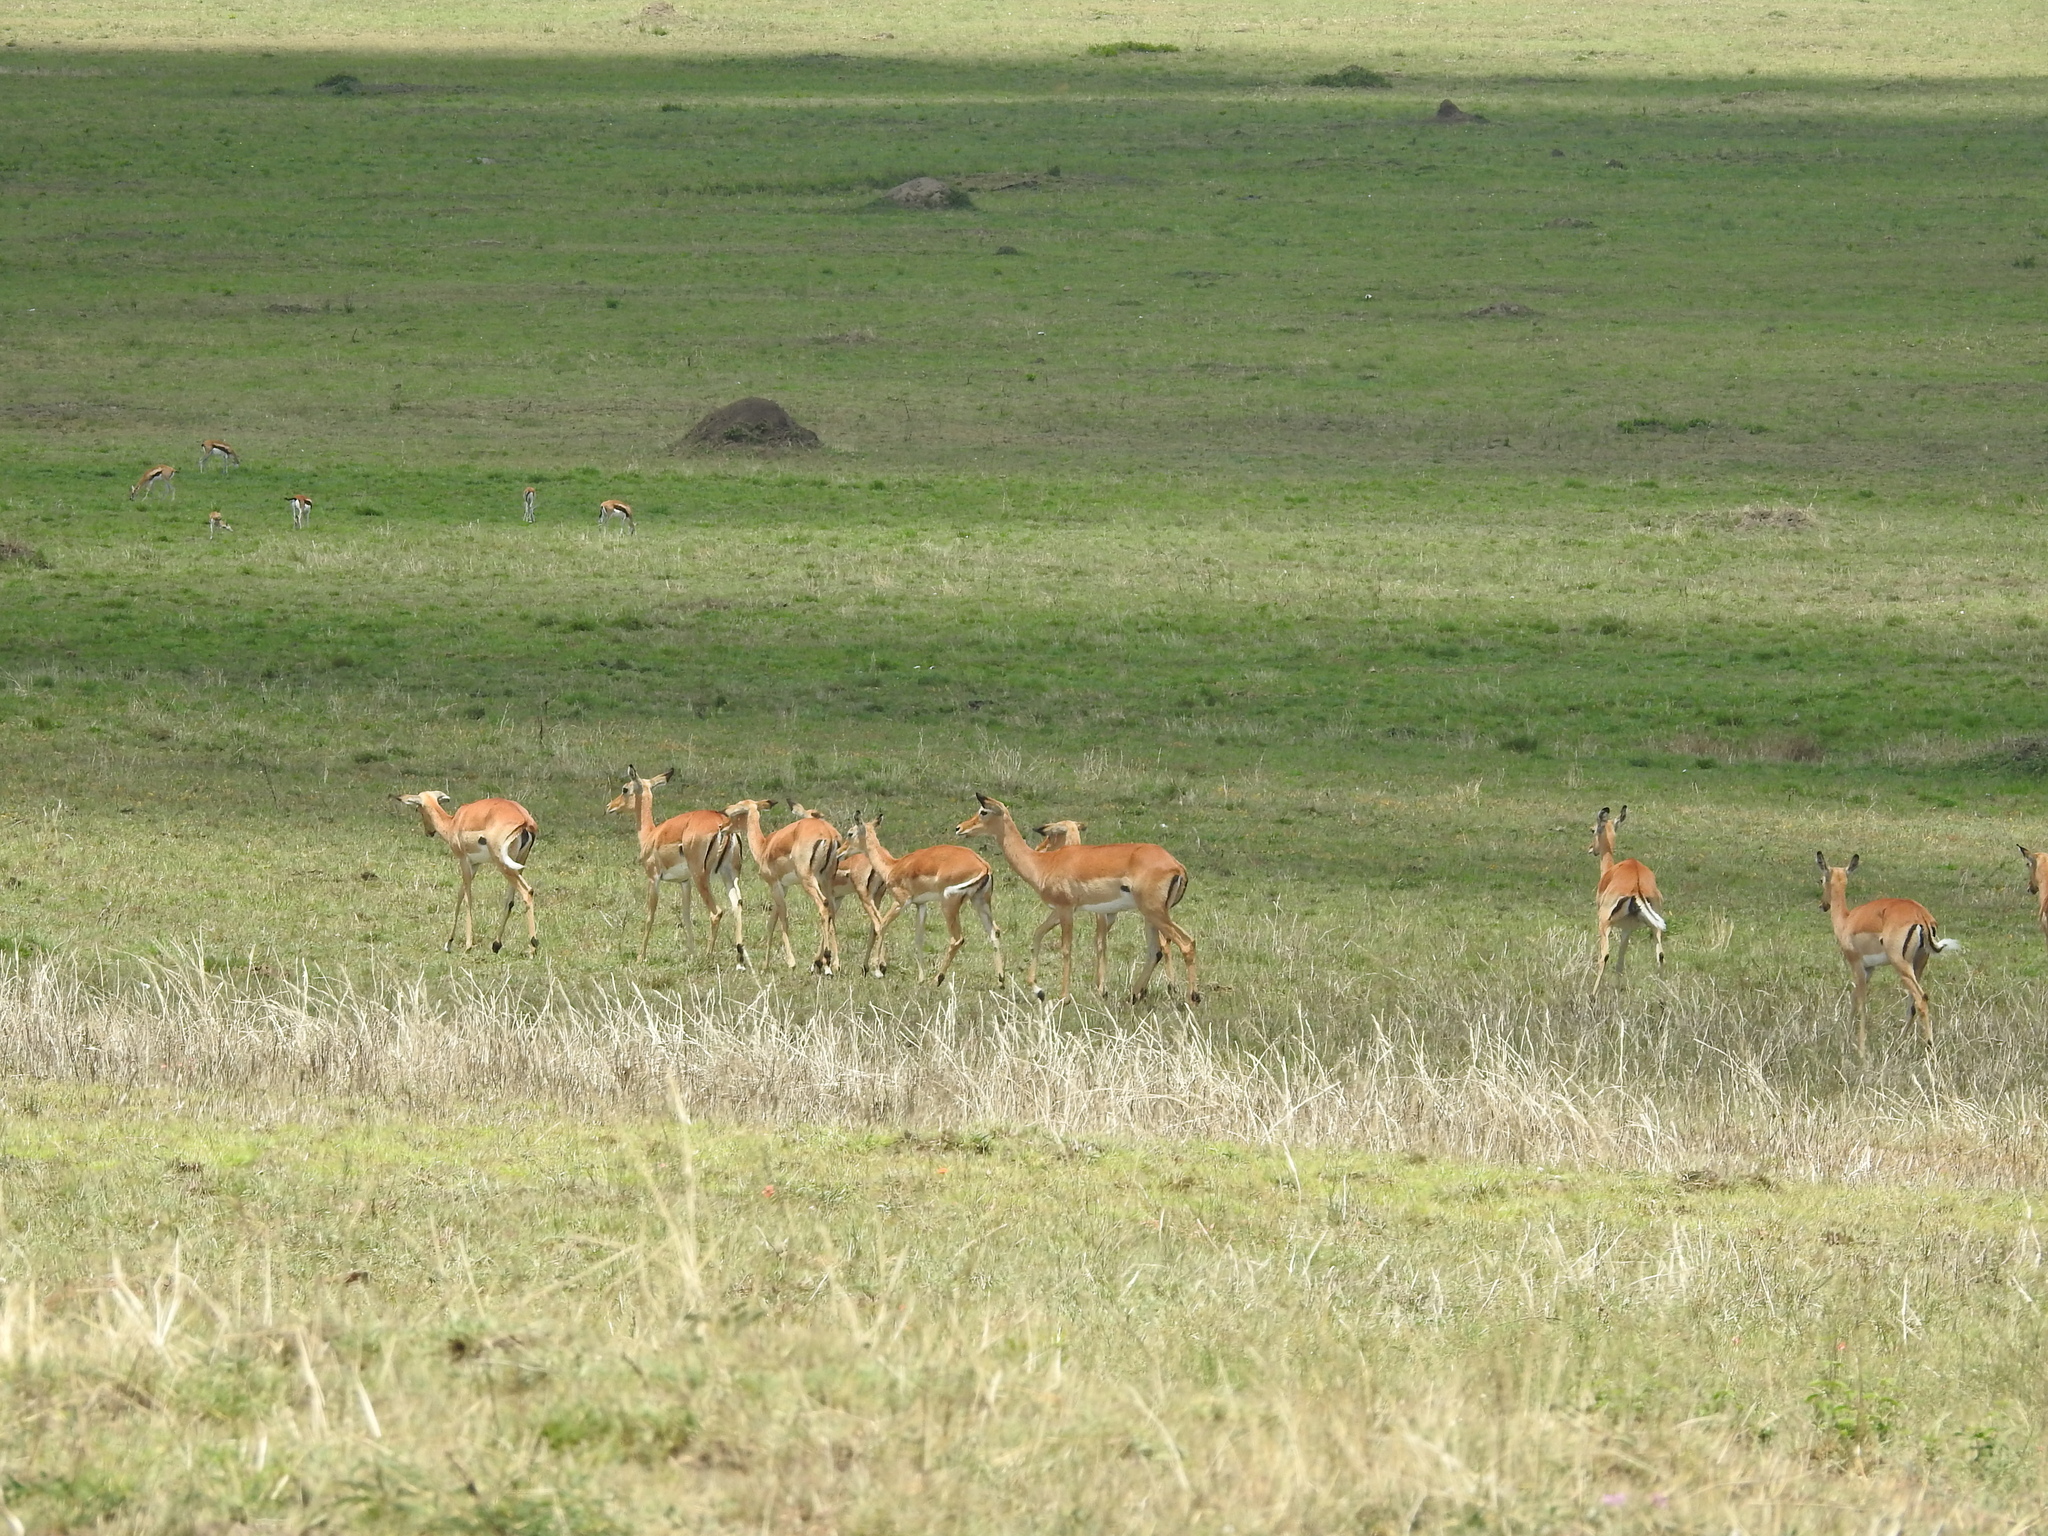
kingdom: Animalia
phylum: Chordata
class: Mammalia
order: Artiodactyla
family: Bovidae
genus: Aepyceros
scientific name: Aepyceros melampus
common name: Impala
